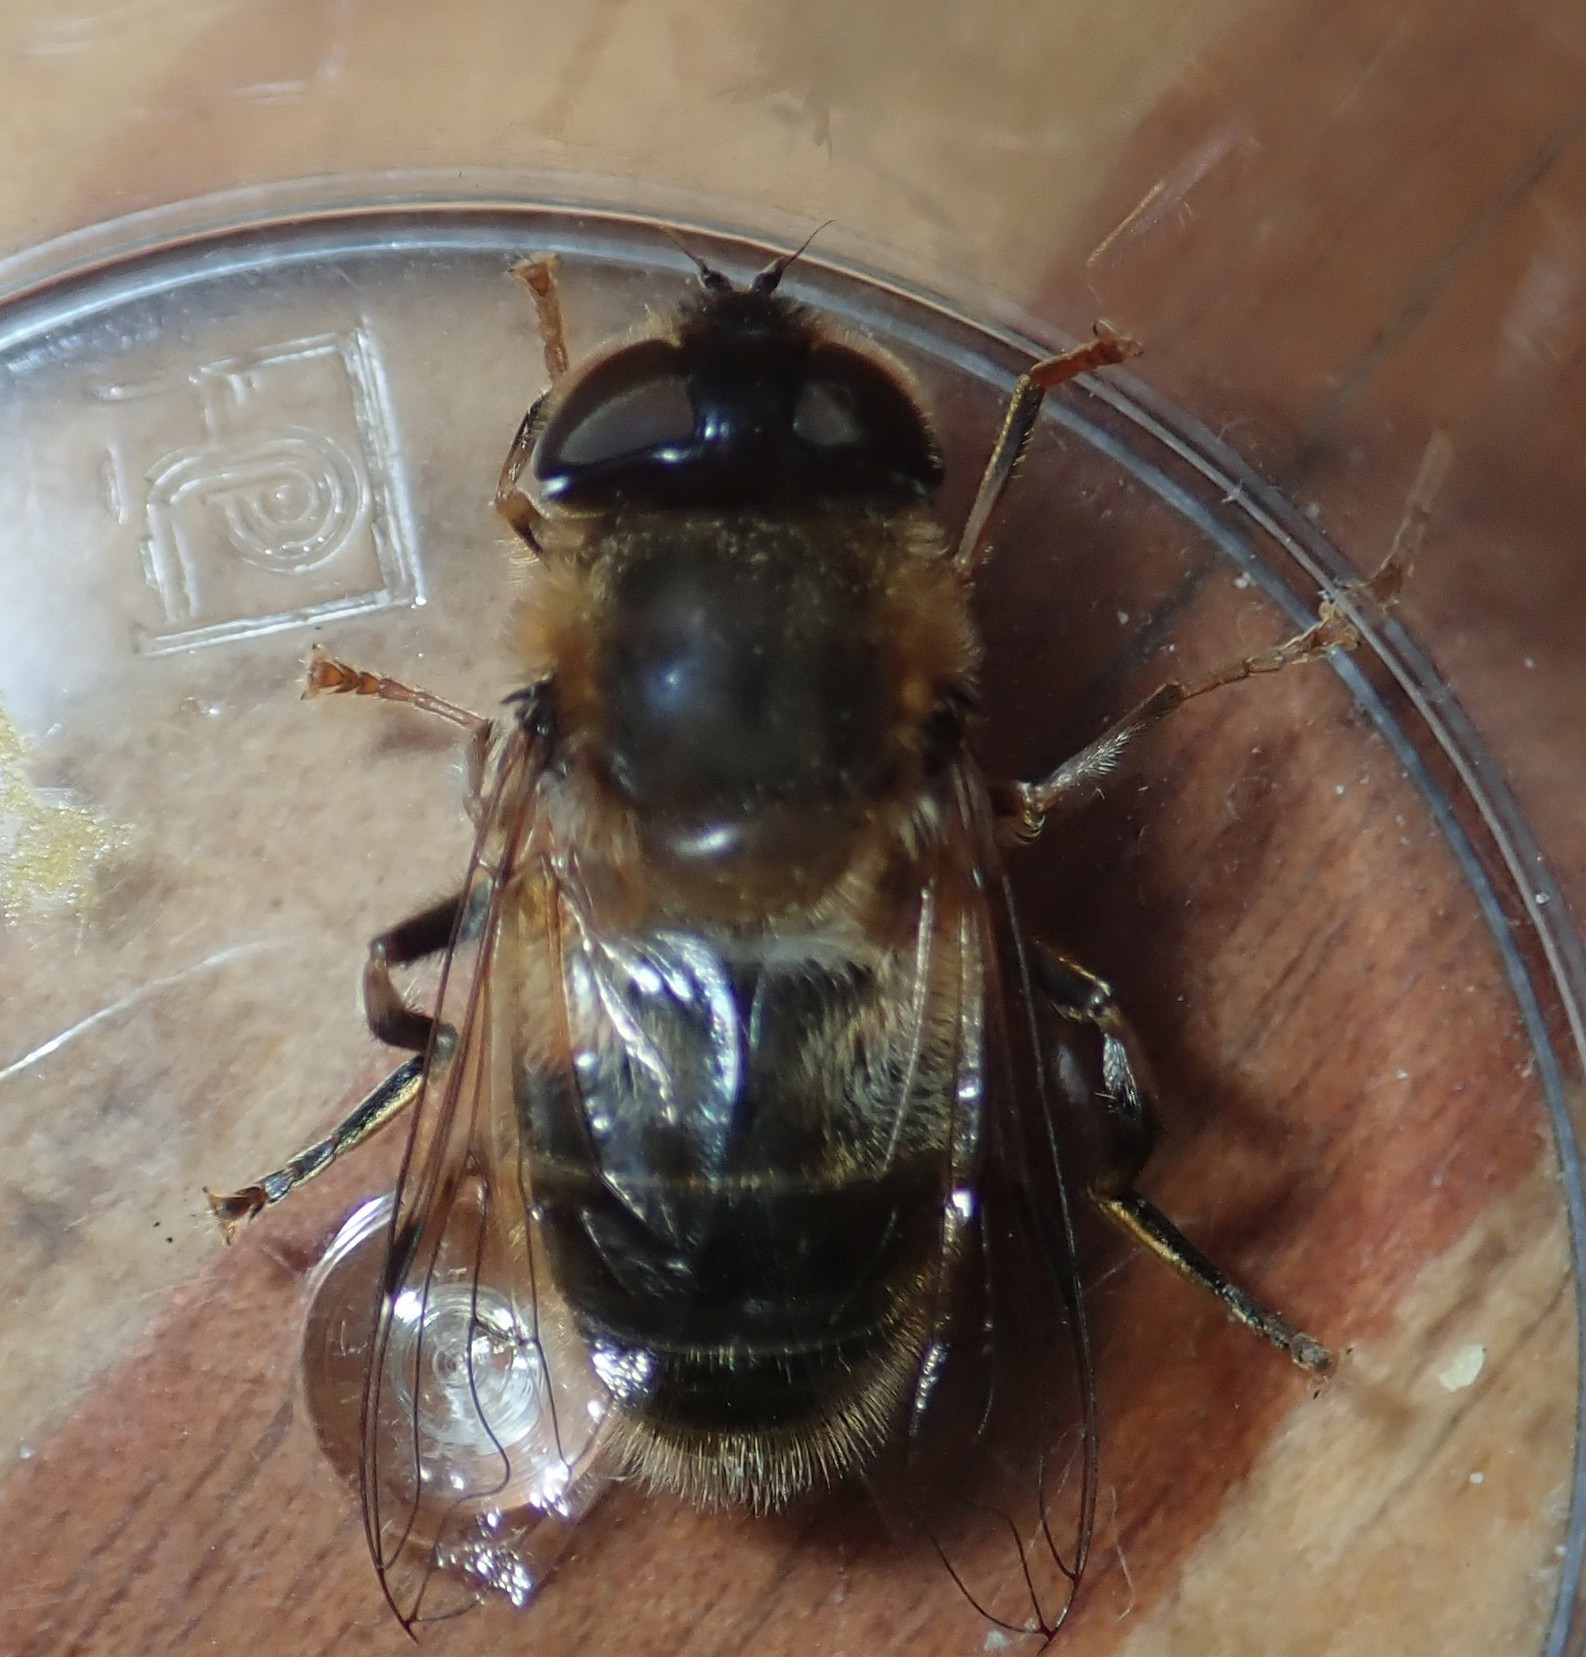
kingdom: Animalia
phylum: Arthropoda
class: Insecta
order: Diptera
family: Syrphidae
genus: Eristalis
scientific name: Eristalis pertinax
